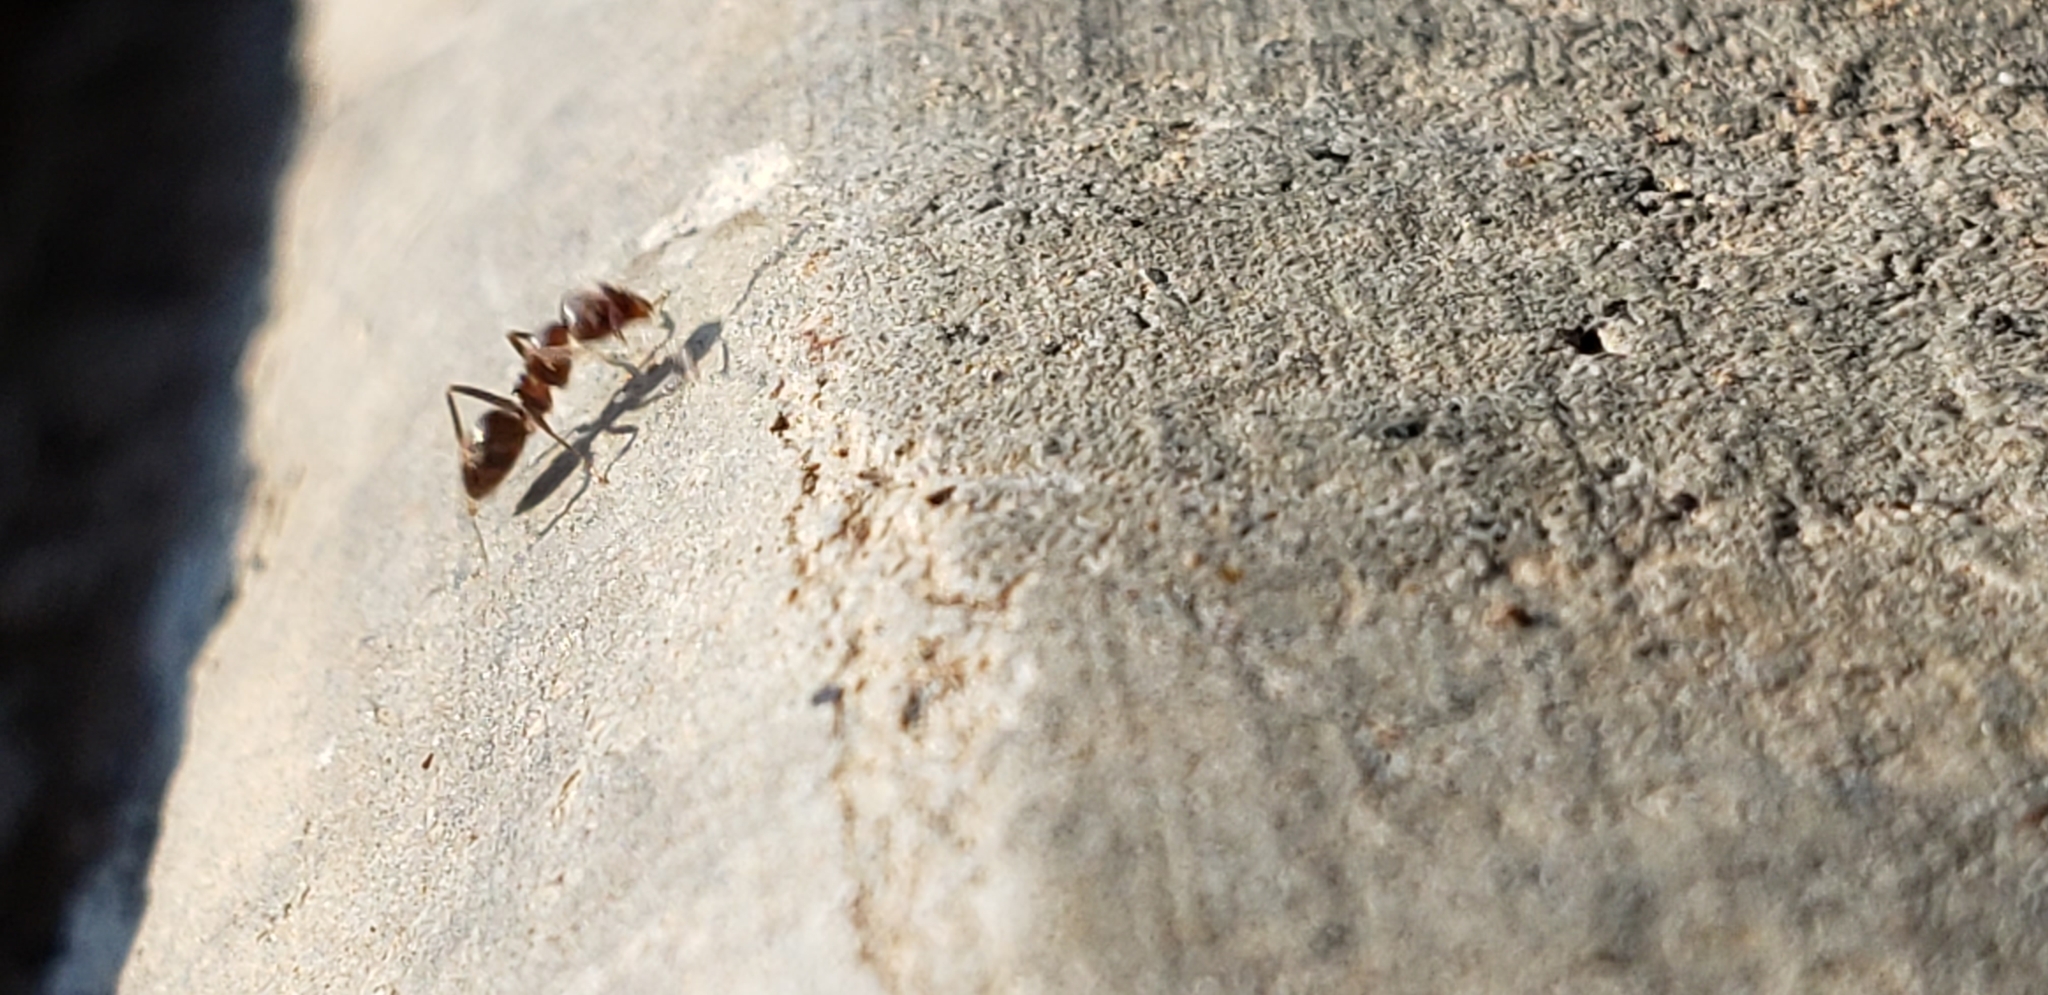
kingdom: Animalia
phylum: Arthropoda
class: Insecta
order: Hymenoptera
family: Formicidae
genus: Linepithema
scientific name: Linepithema humile
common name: Argentine ant
